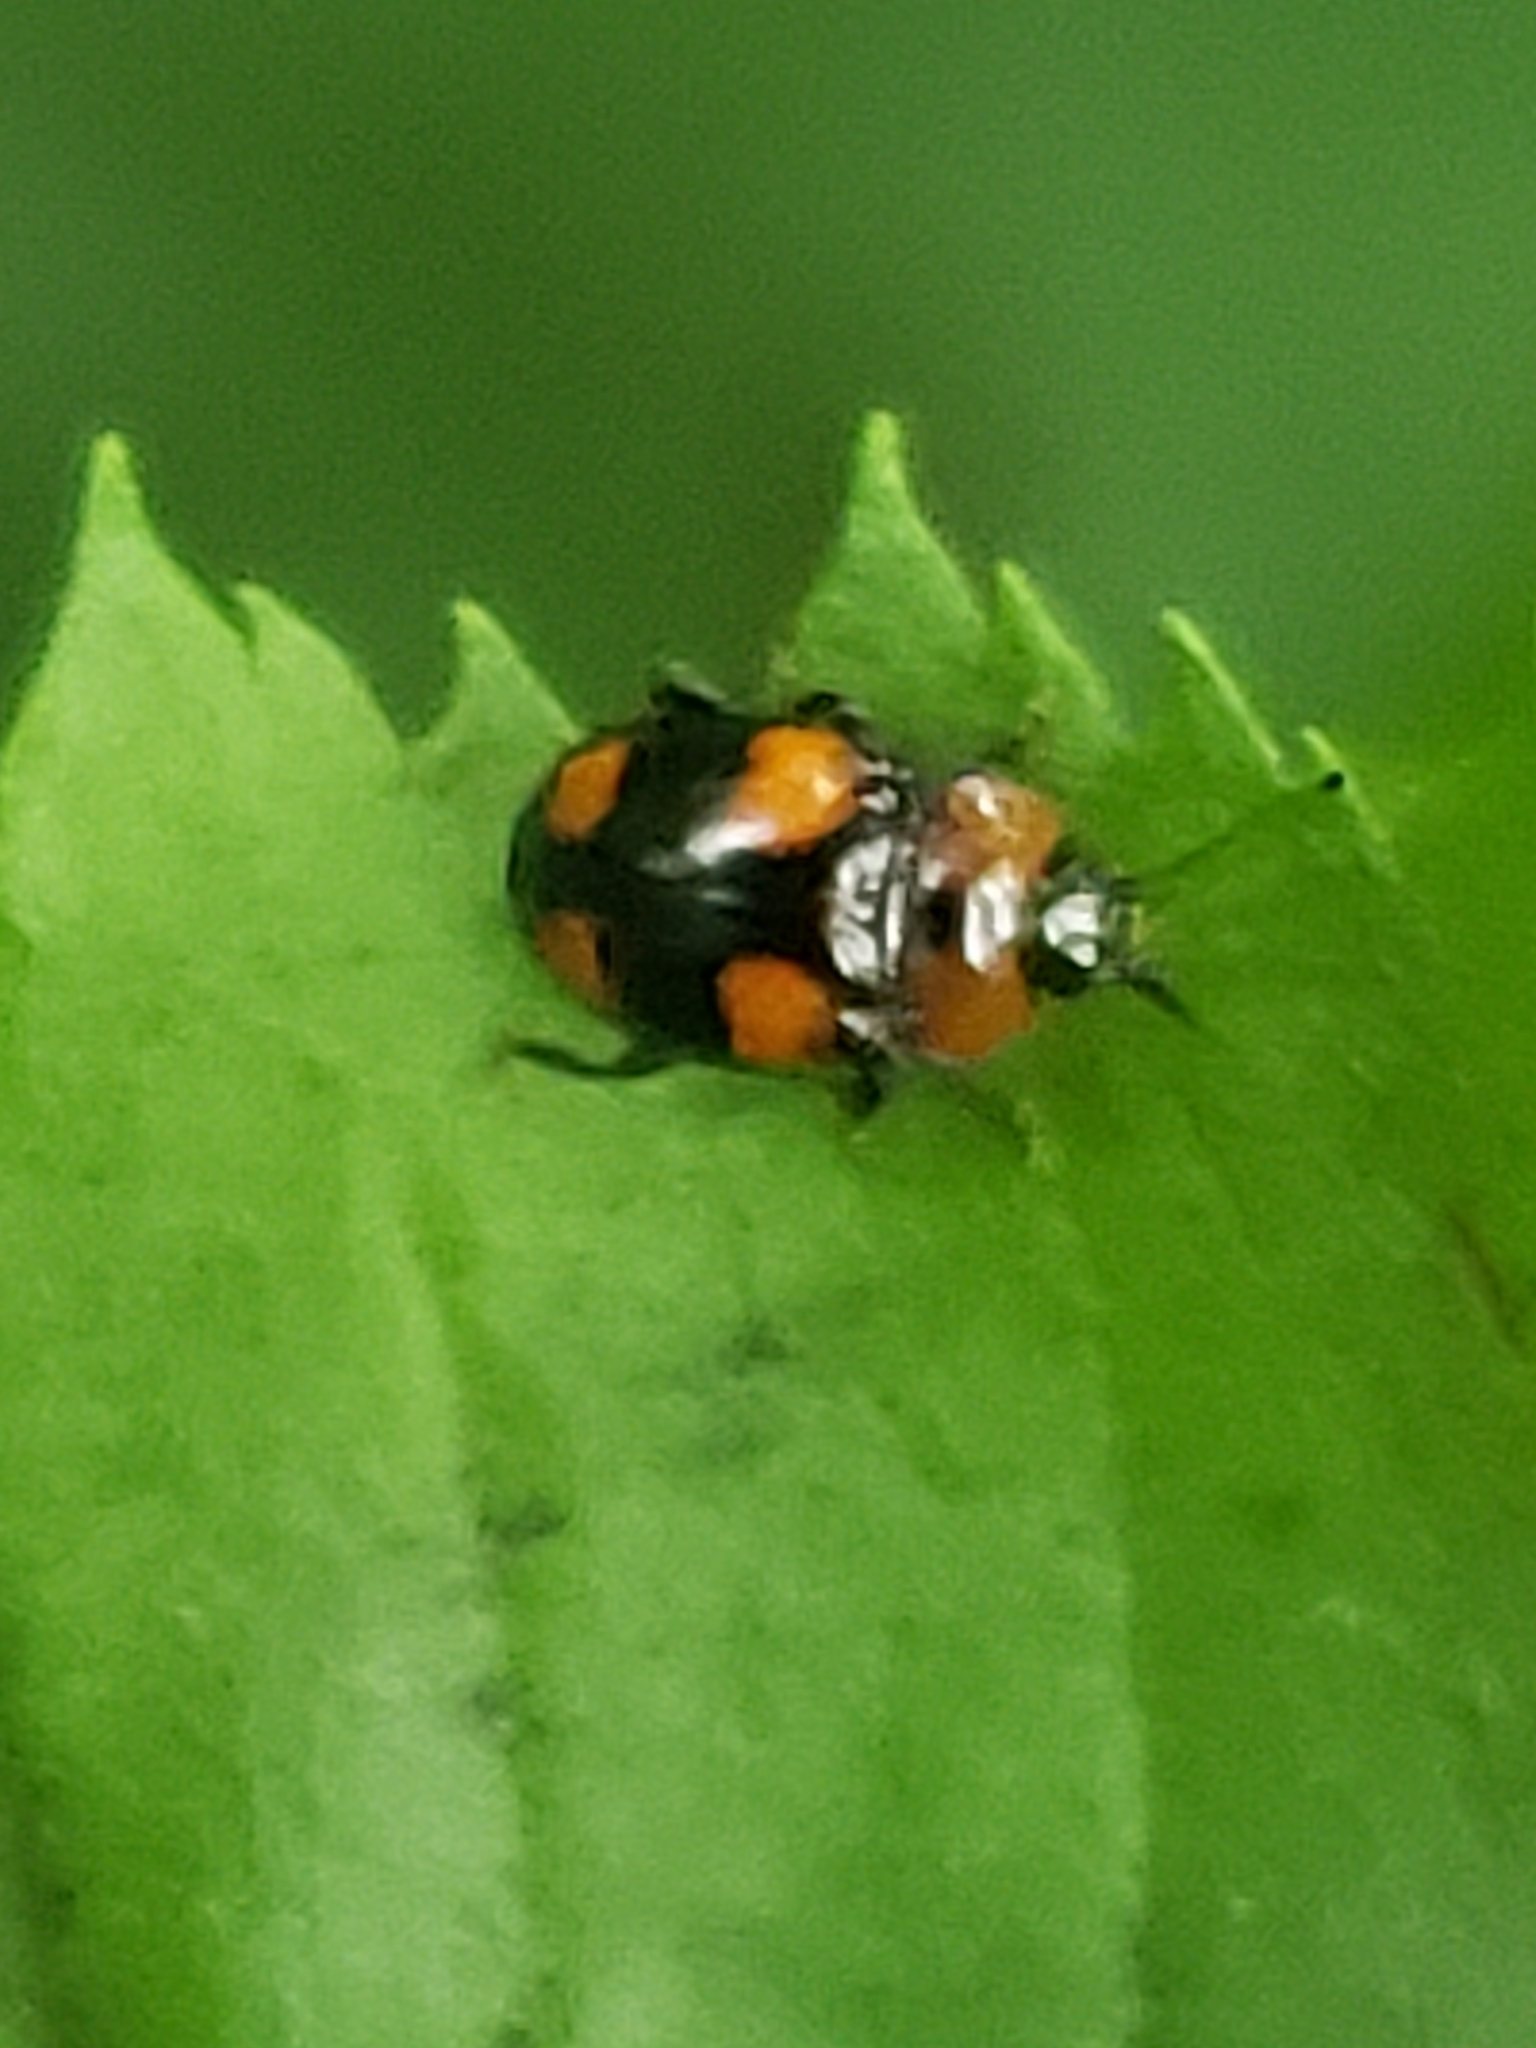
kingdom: Animalia
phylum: Arthropoda
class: Insecta
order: Coleoptera
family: Endomychidae
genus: Mycetina
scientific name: Mycetina perpulchra
